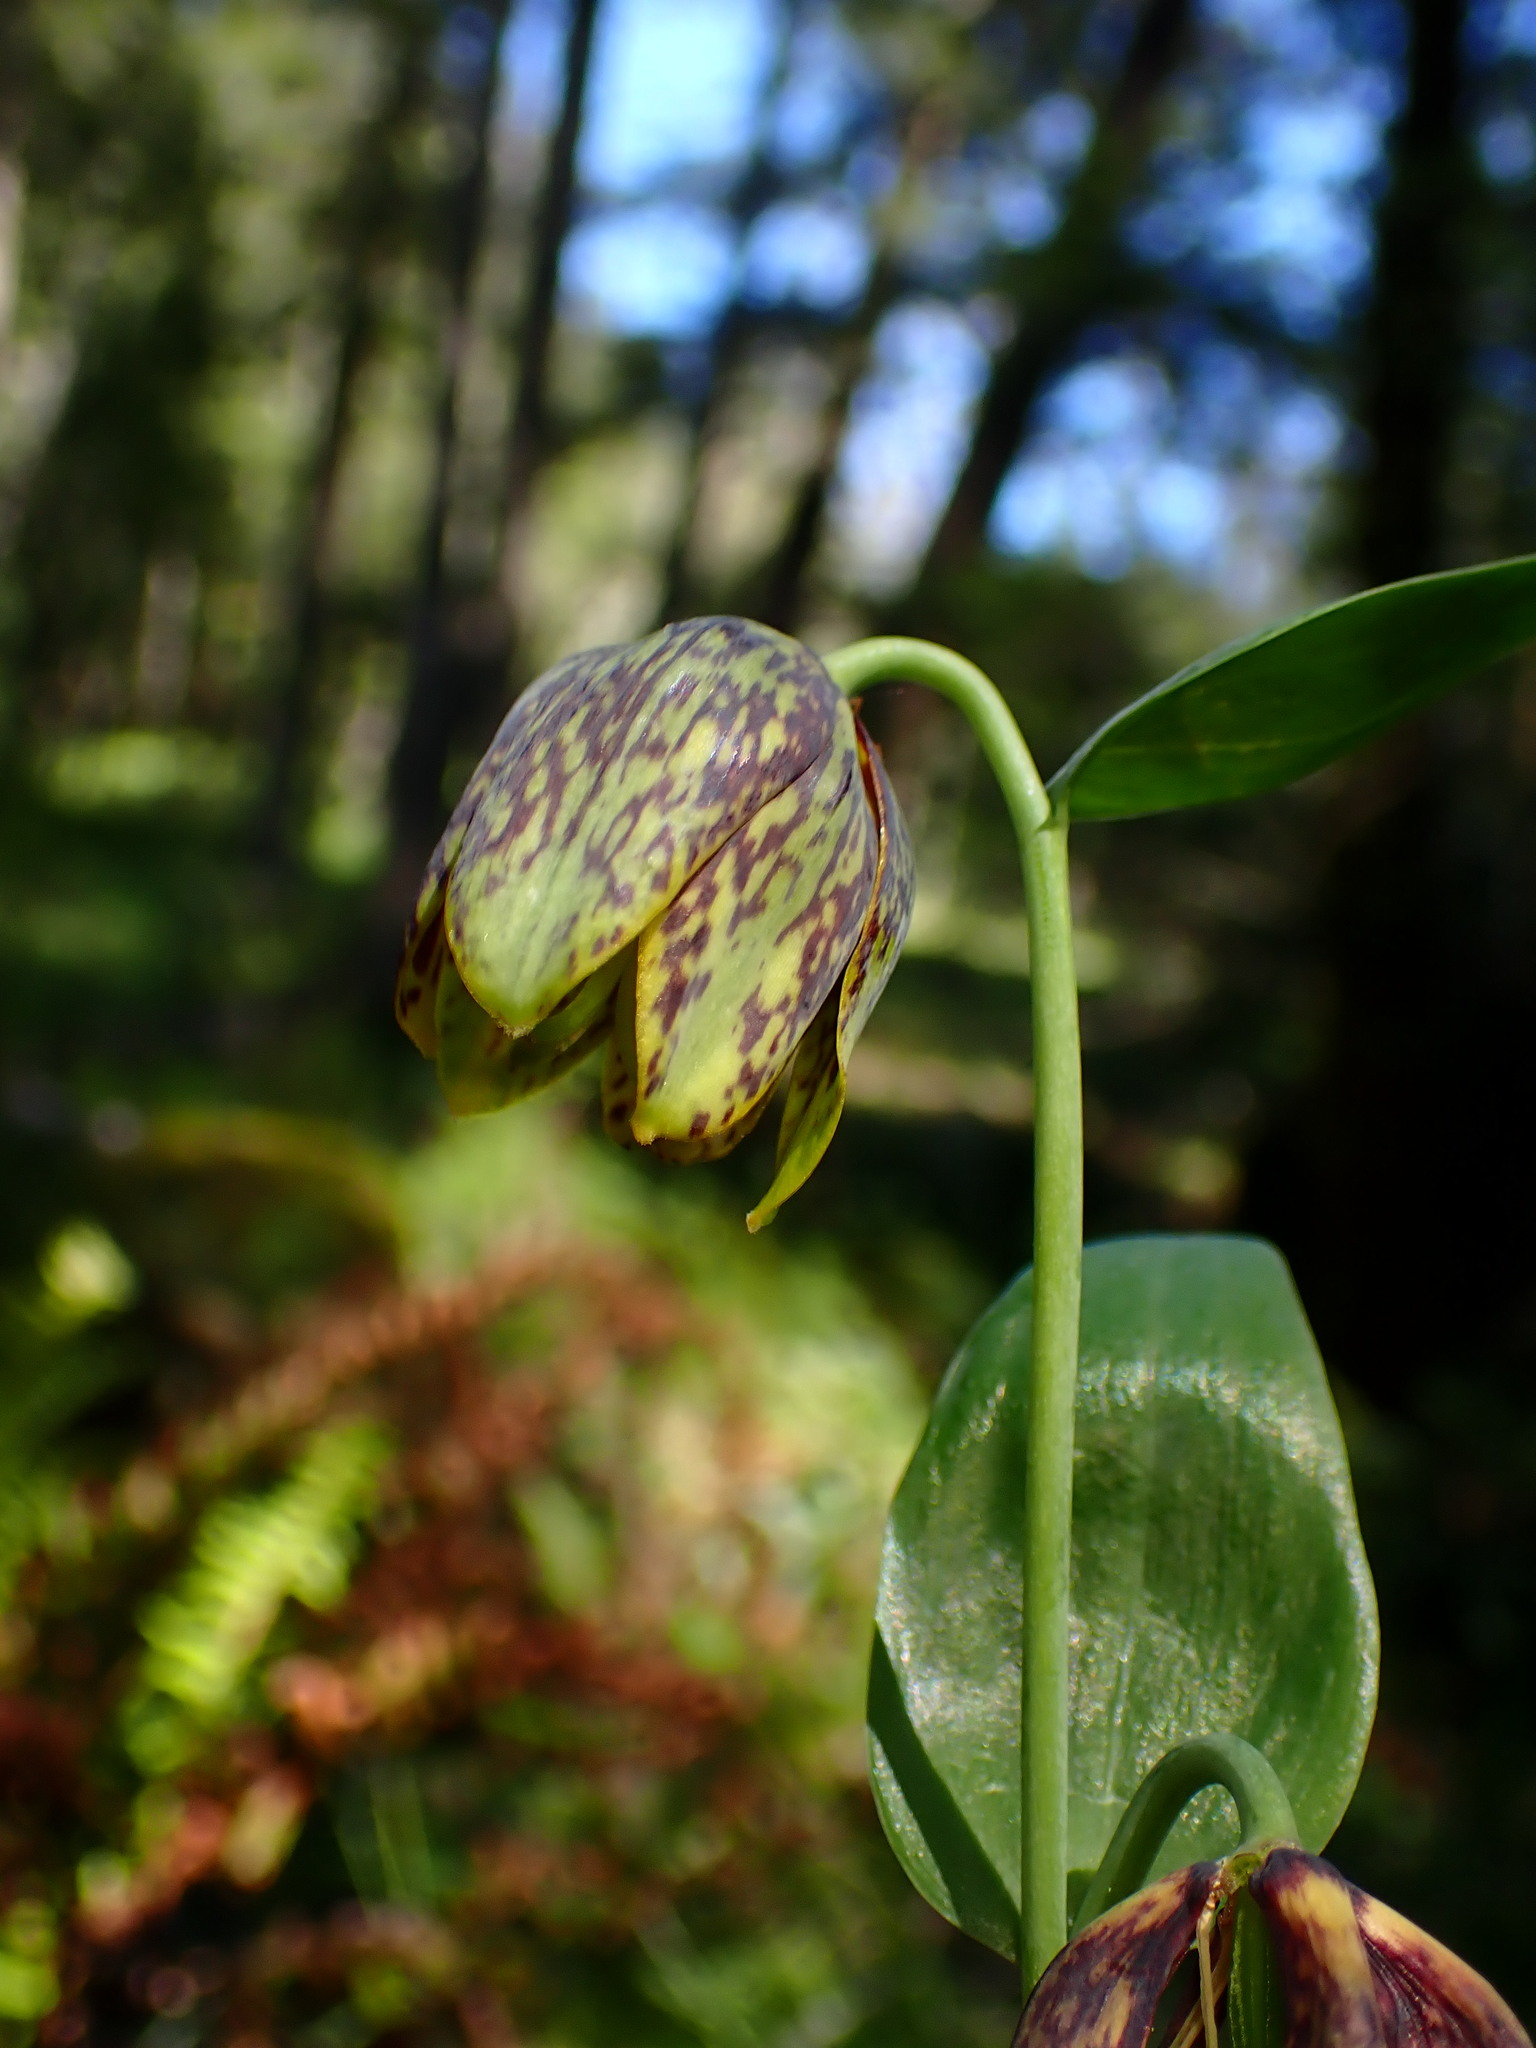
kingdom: Plantae
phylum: Tracheophyta
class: Liliopsida
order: Liliales
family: Liliaceae
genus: Fritillaria
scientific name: Fritillaria affinis
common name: Ojai fritillary
